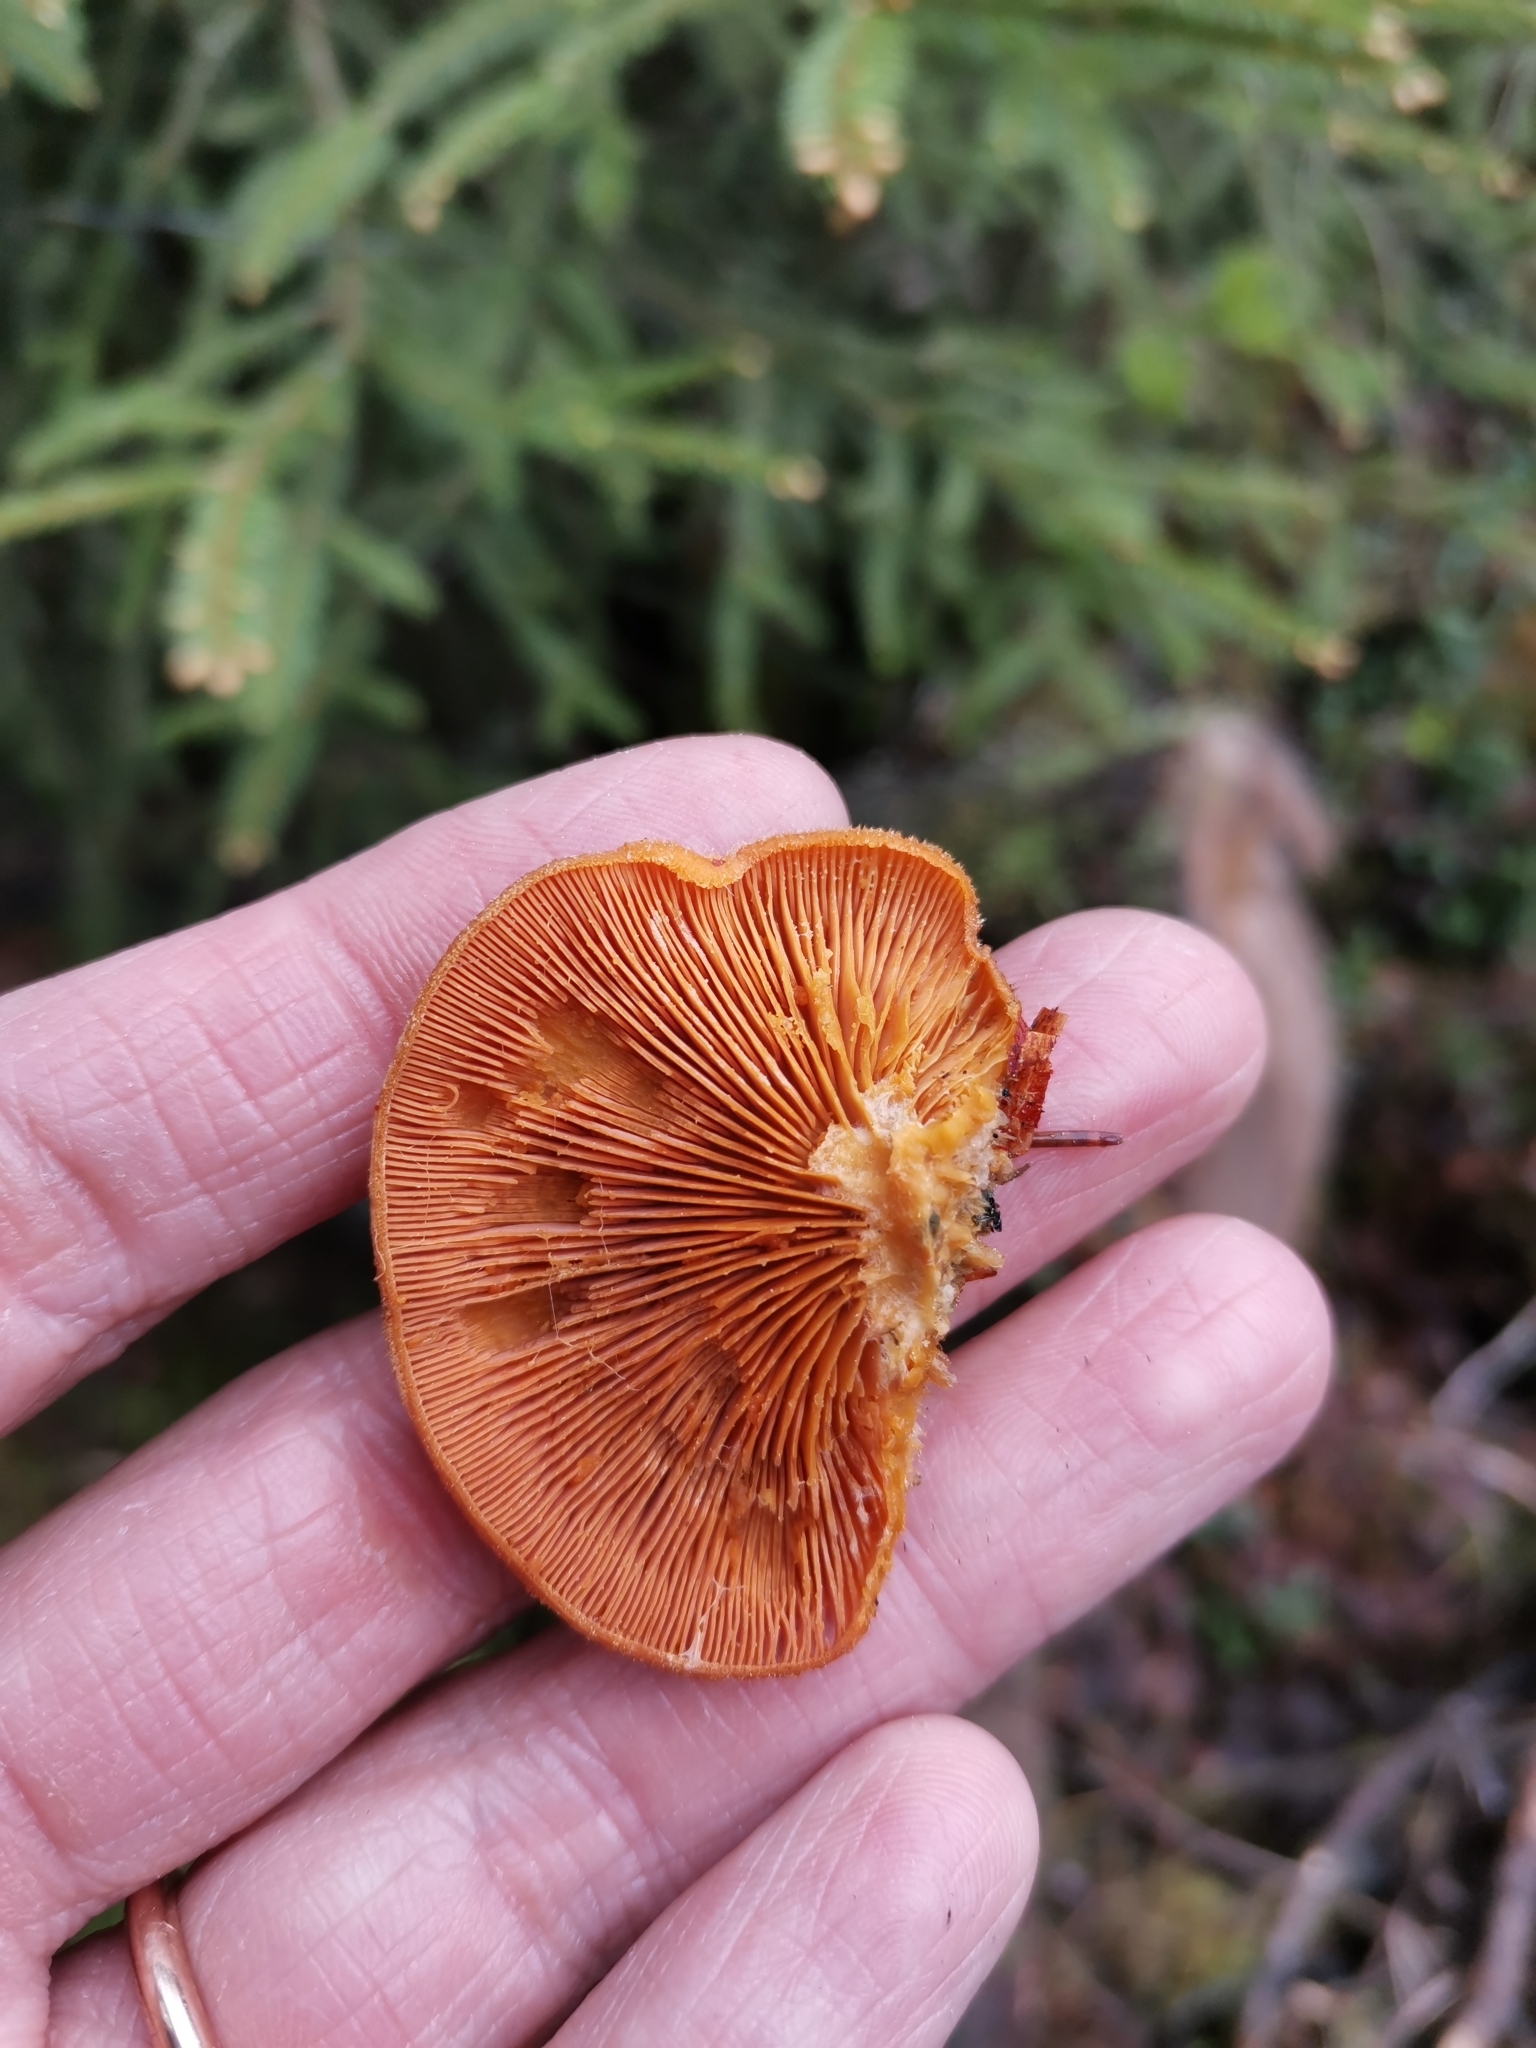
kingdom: Fungi
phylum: Basidiomycota
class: Agaricomycetes
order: Agaricales
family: Phyllotopsidaceae
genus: Phyllotopsis
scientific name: Phyllotopsis nidulans
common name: Orange mock oyster
